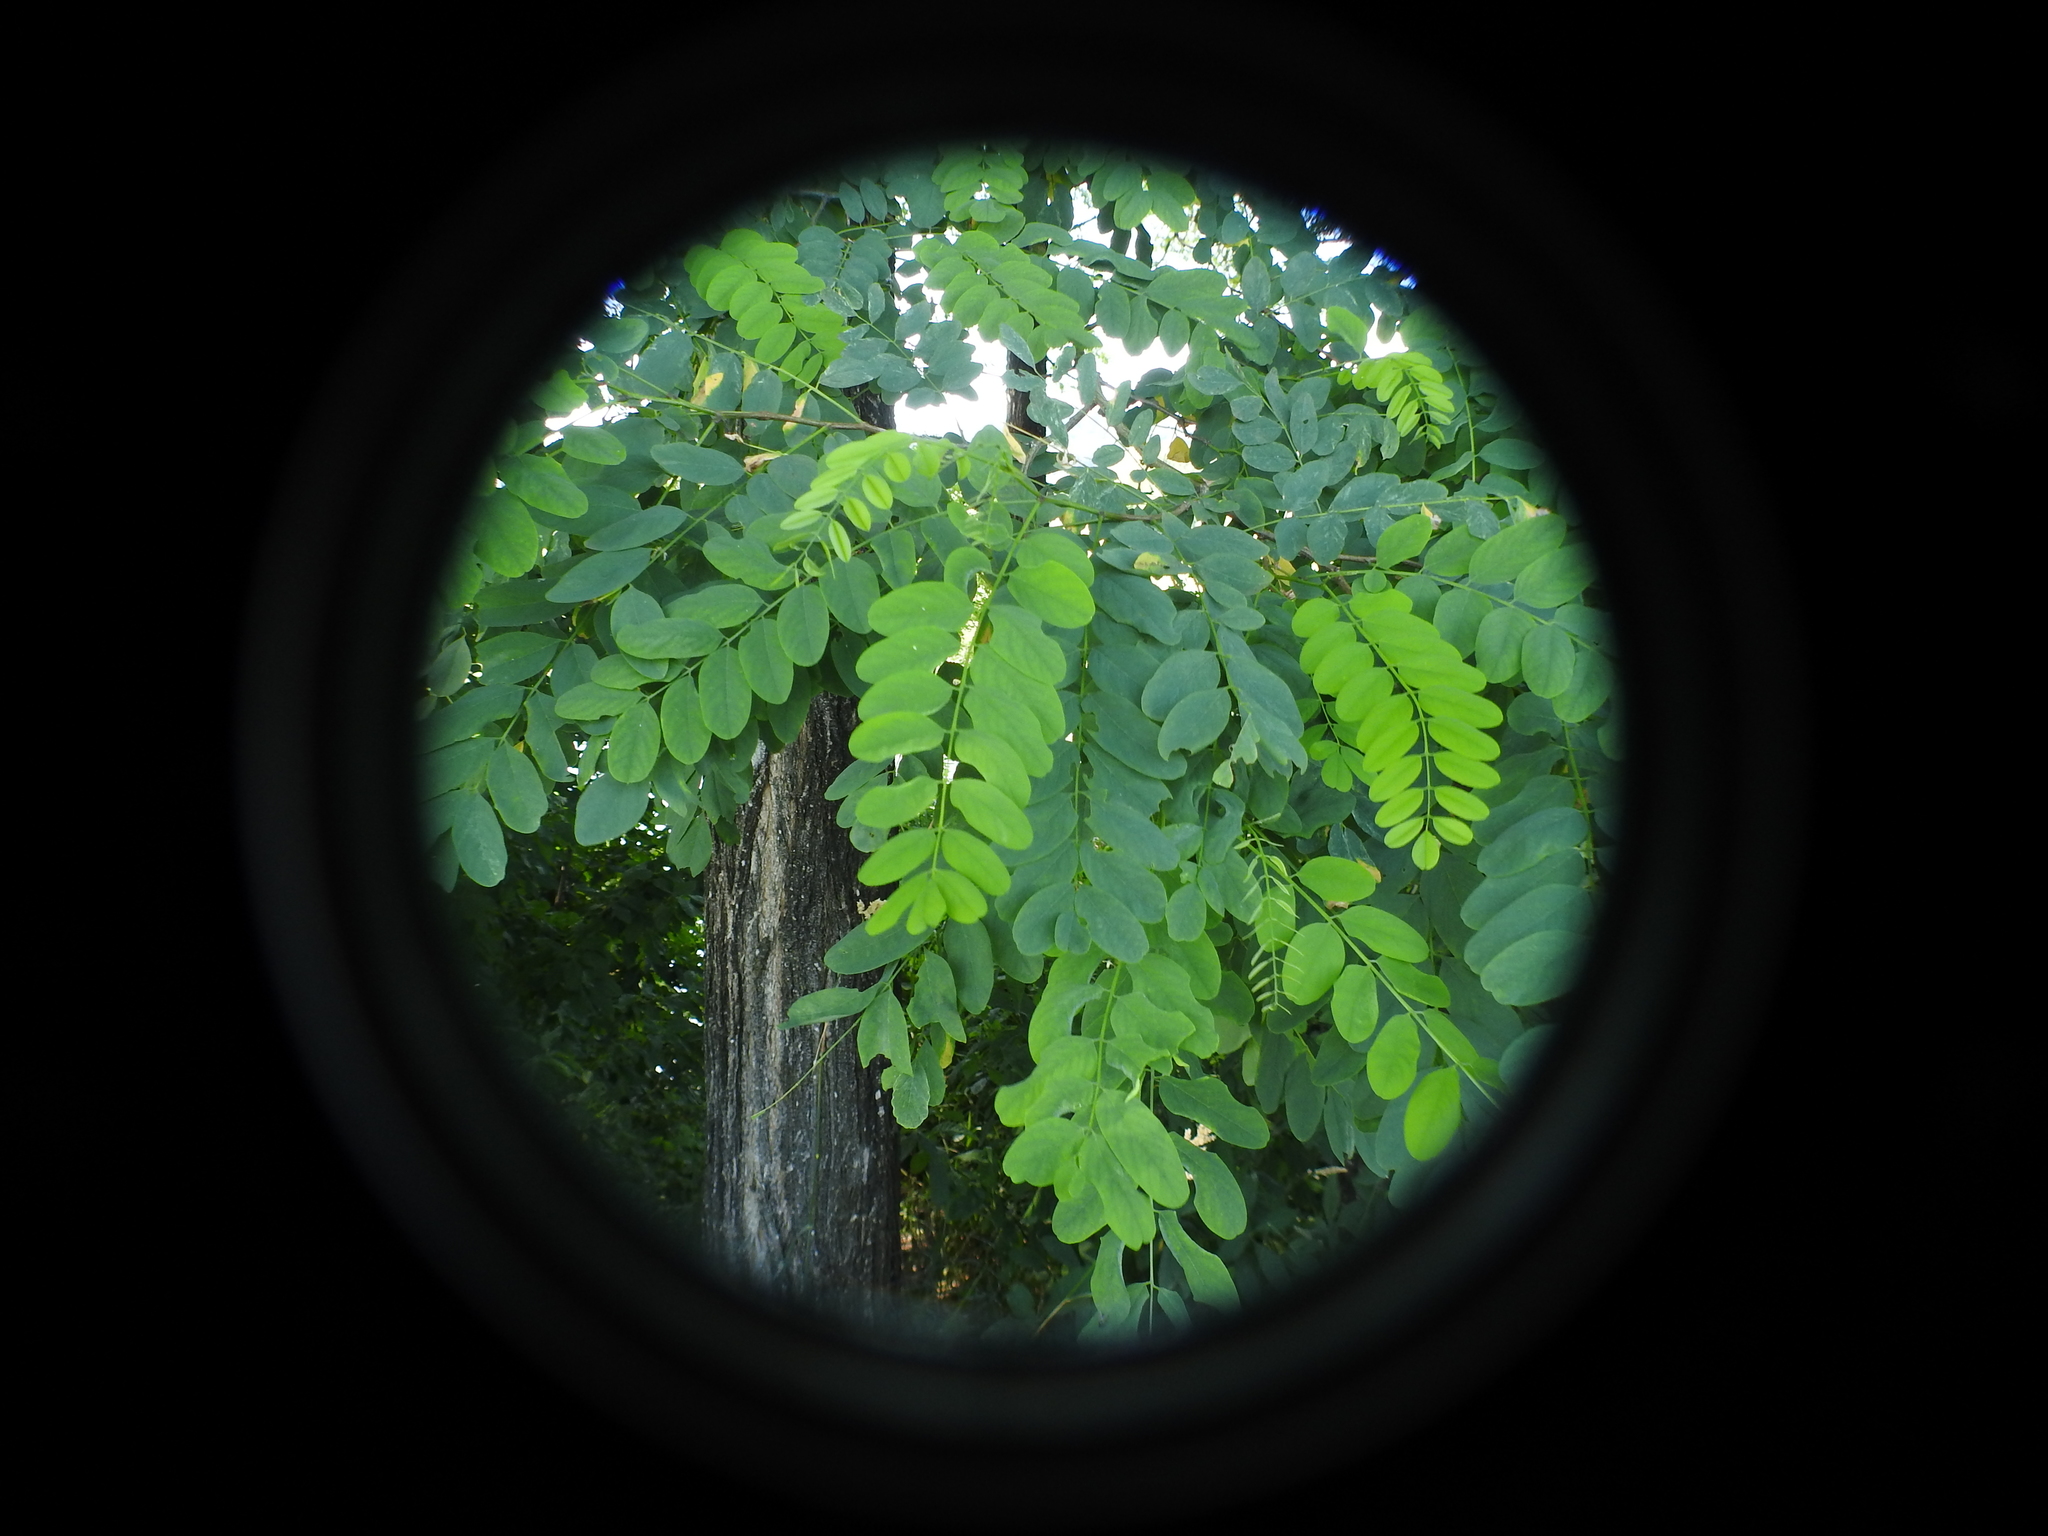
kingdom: Plantae
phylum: Tracheophyta
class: Magnoliopsida
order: Fabales
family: Fabaceae
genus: Robinia
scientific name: Robinia pseudoacacia
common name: Black locust
